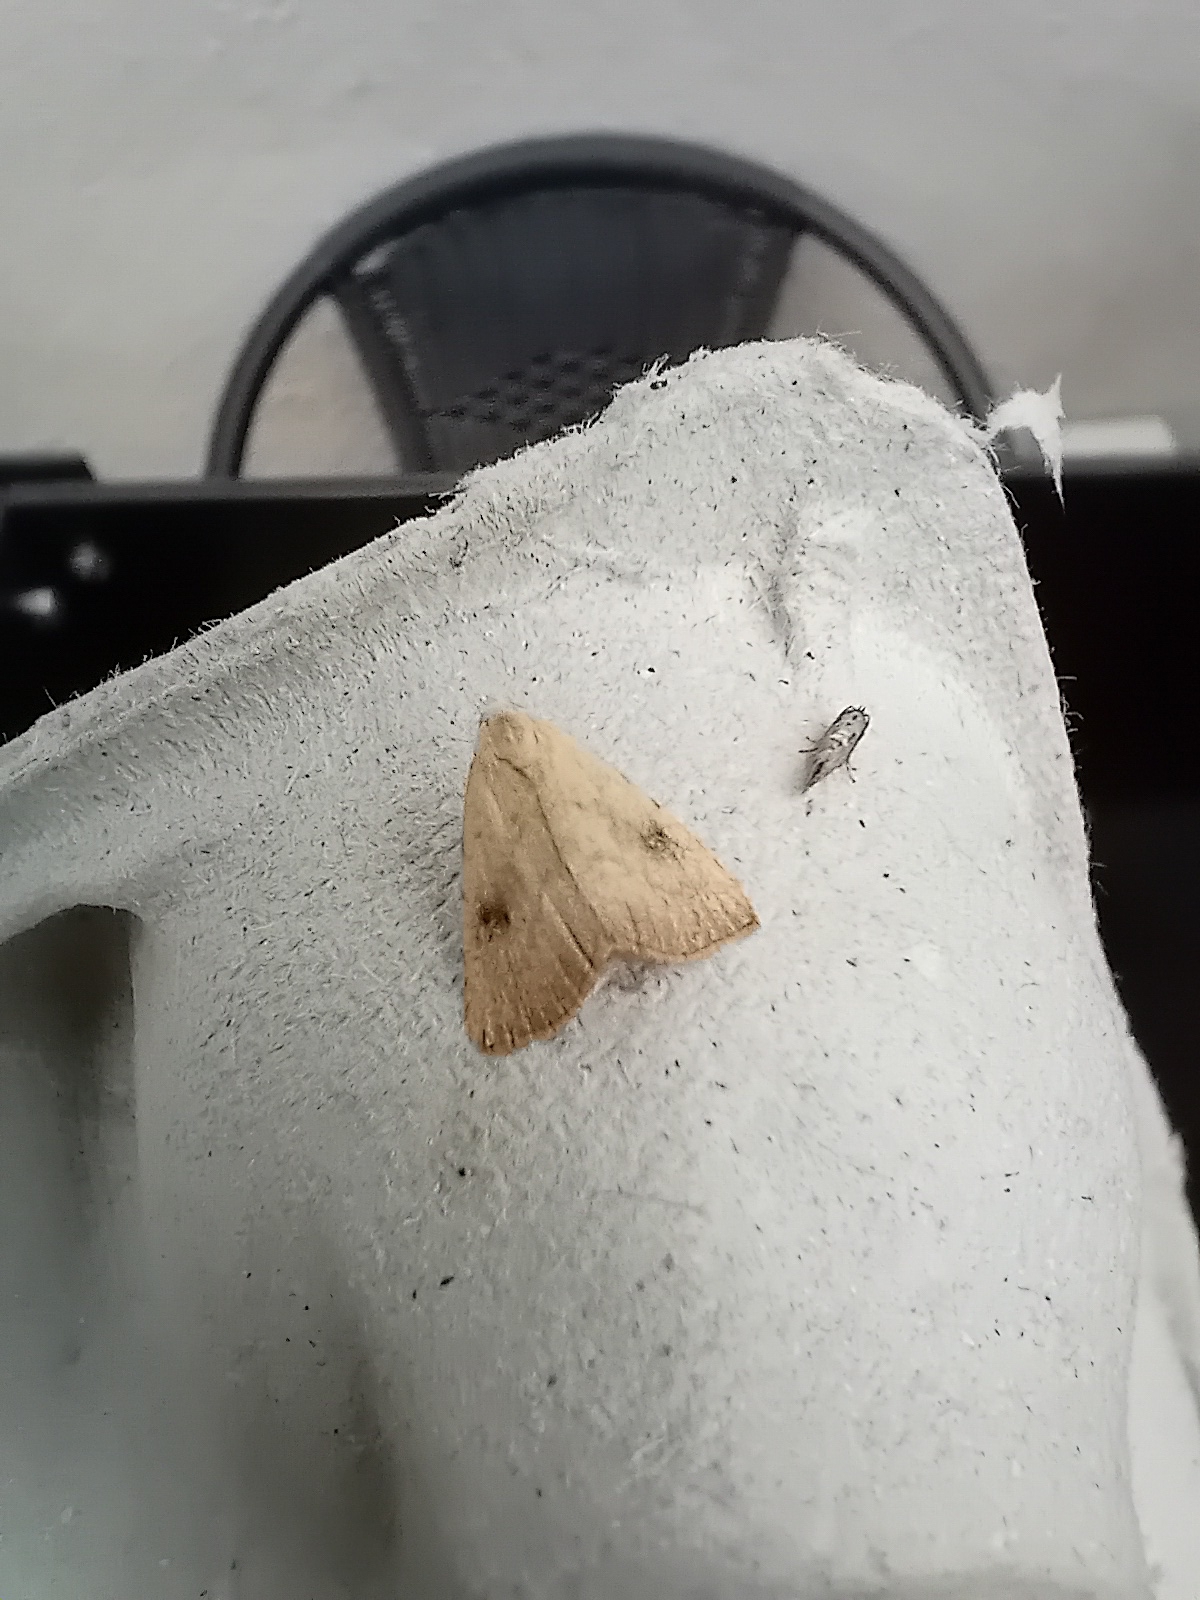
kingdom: Animalia
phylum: Arthropoda
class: Insecta
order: Lepidoptera
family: Erebidae
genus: Rivula
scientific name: Rivula sericealis
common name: Straw dot
